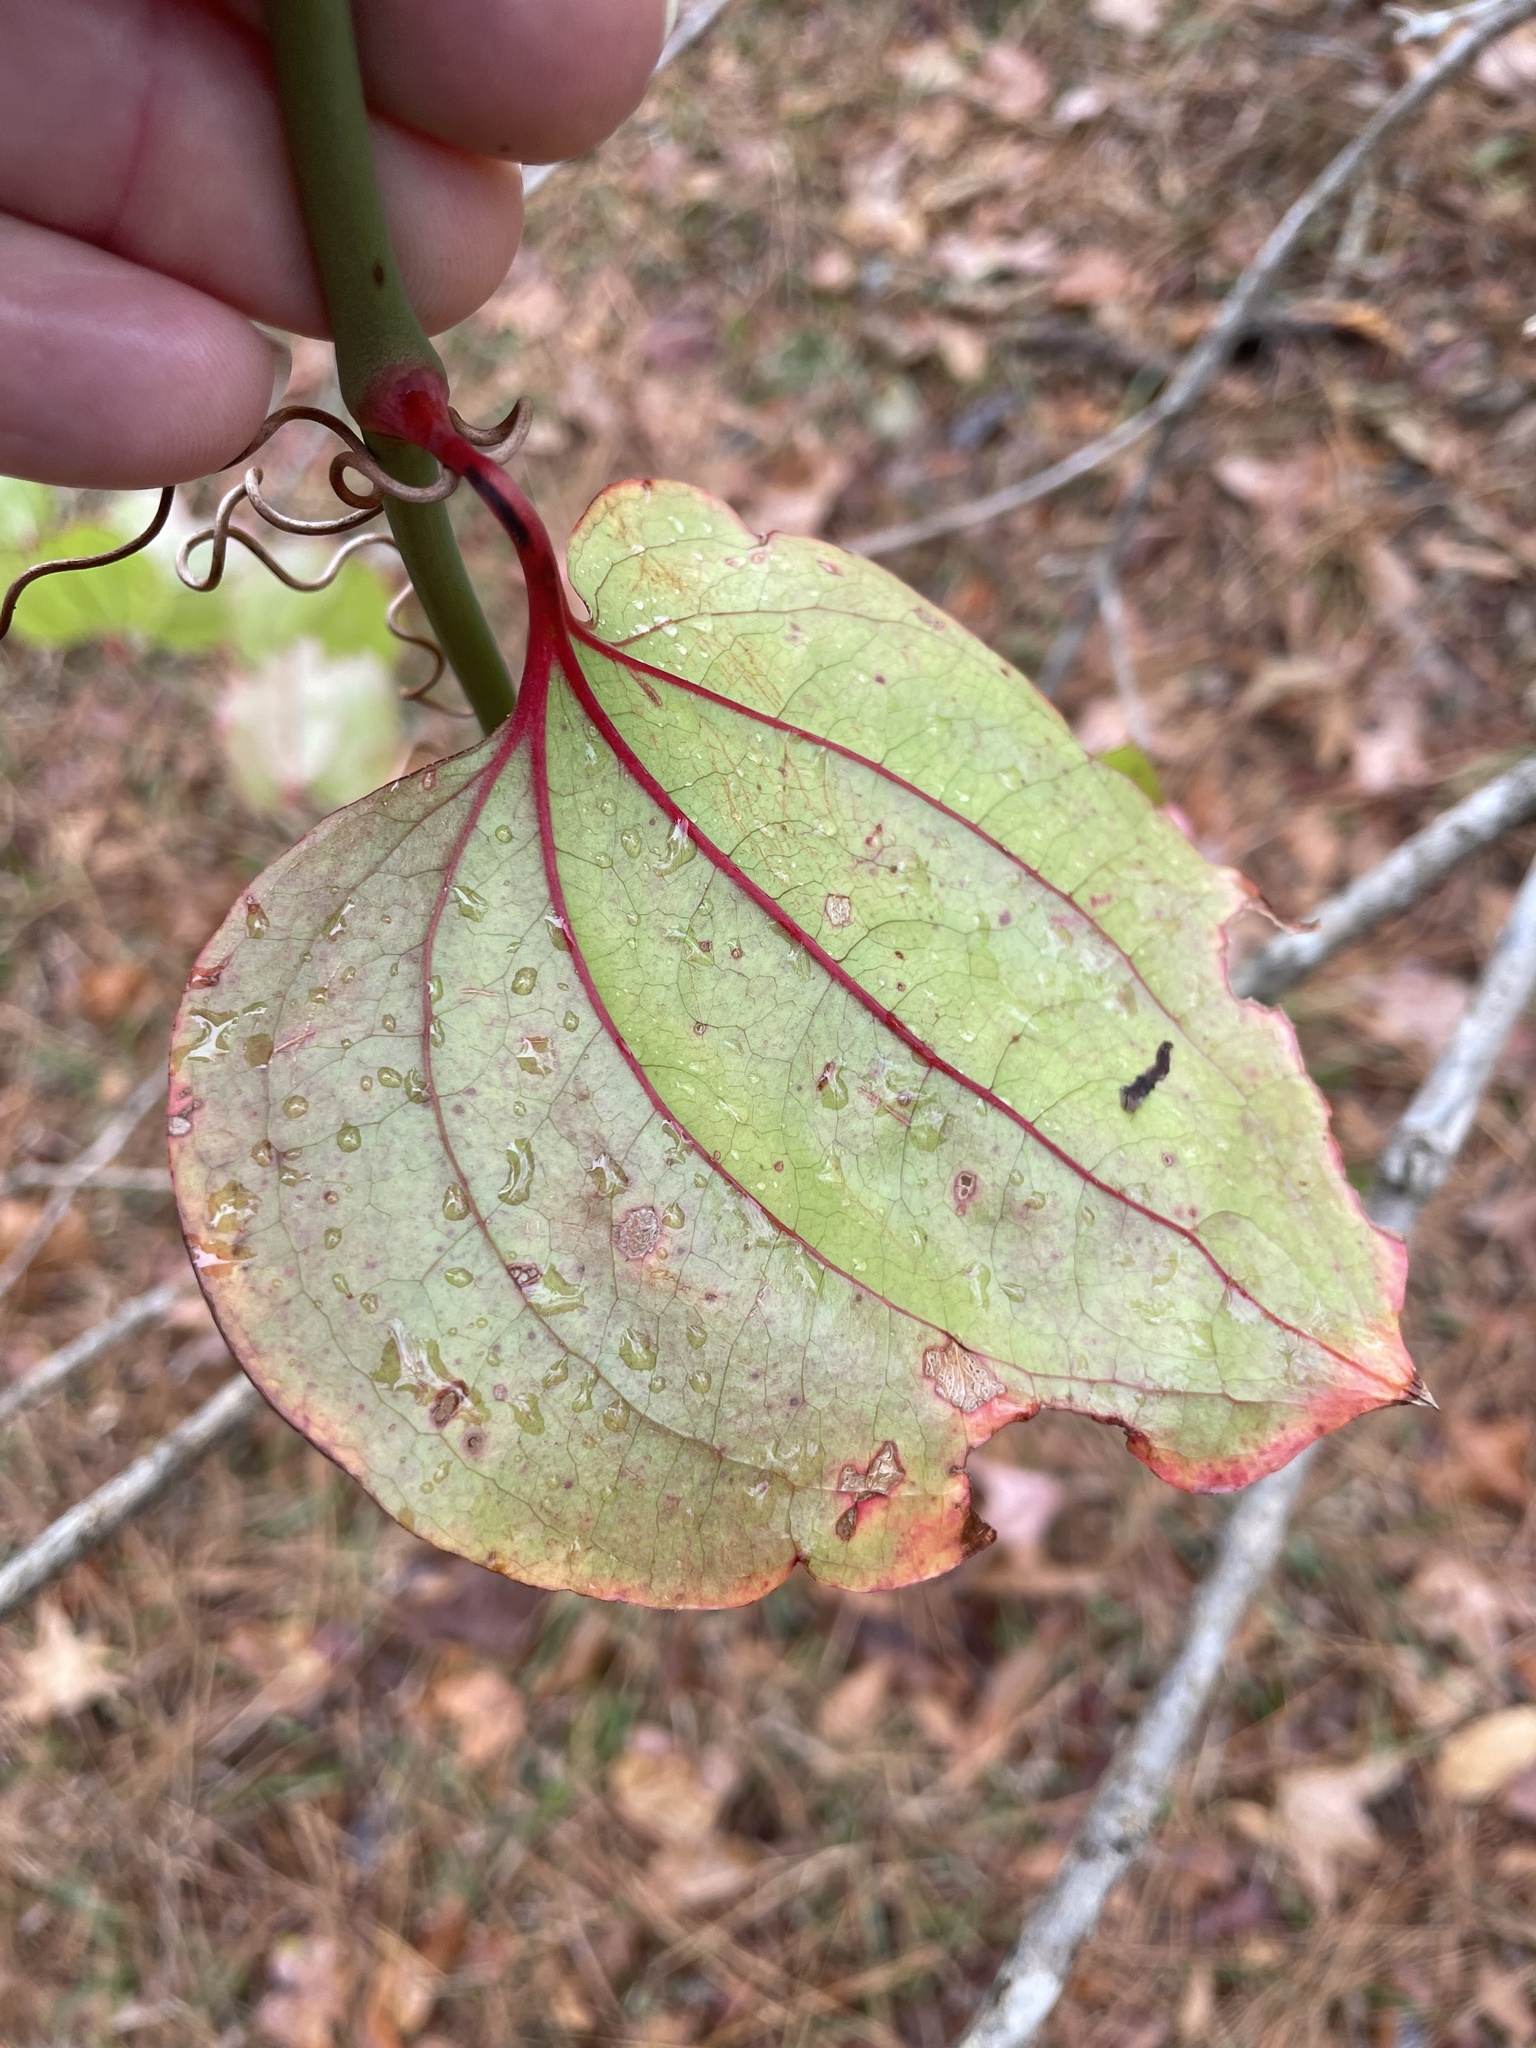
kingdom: Plantae
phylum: Tracheophyta
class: Liliopsida
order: Liliales
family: Smilacaceae
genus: Smilax
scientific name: Smilax rotundifolia
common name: Bullbriar
